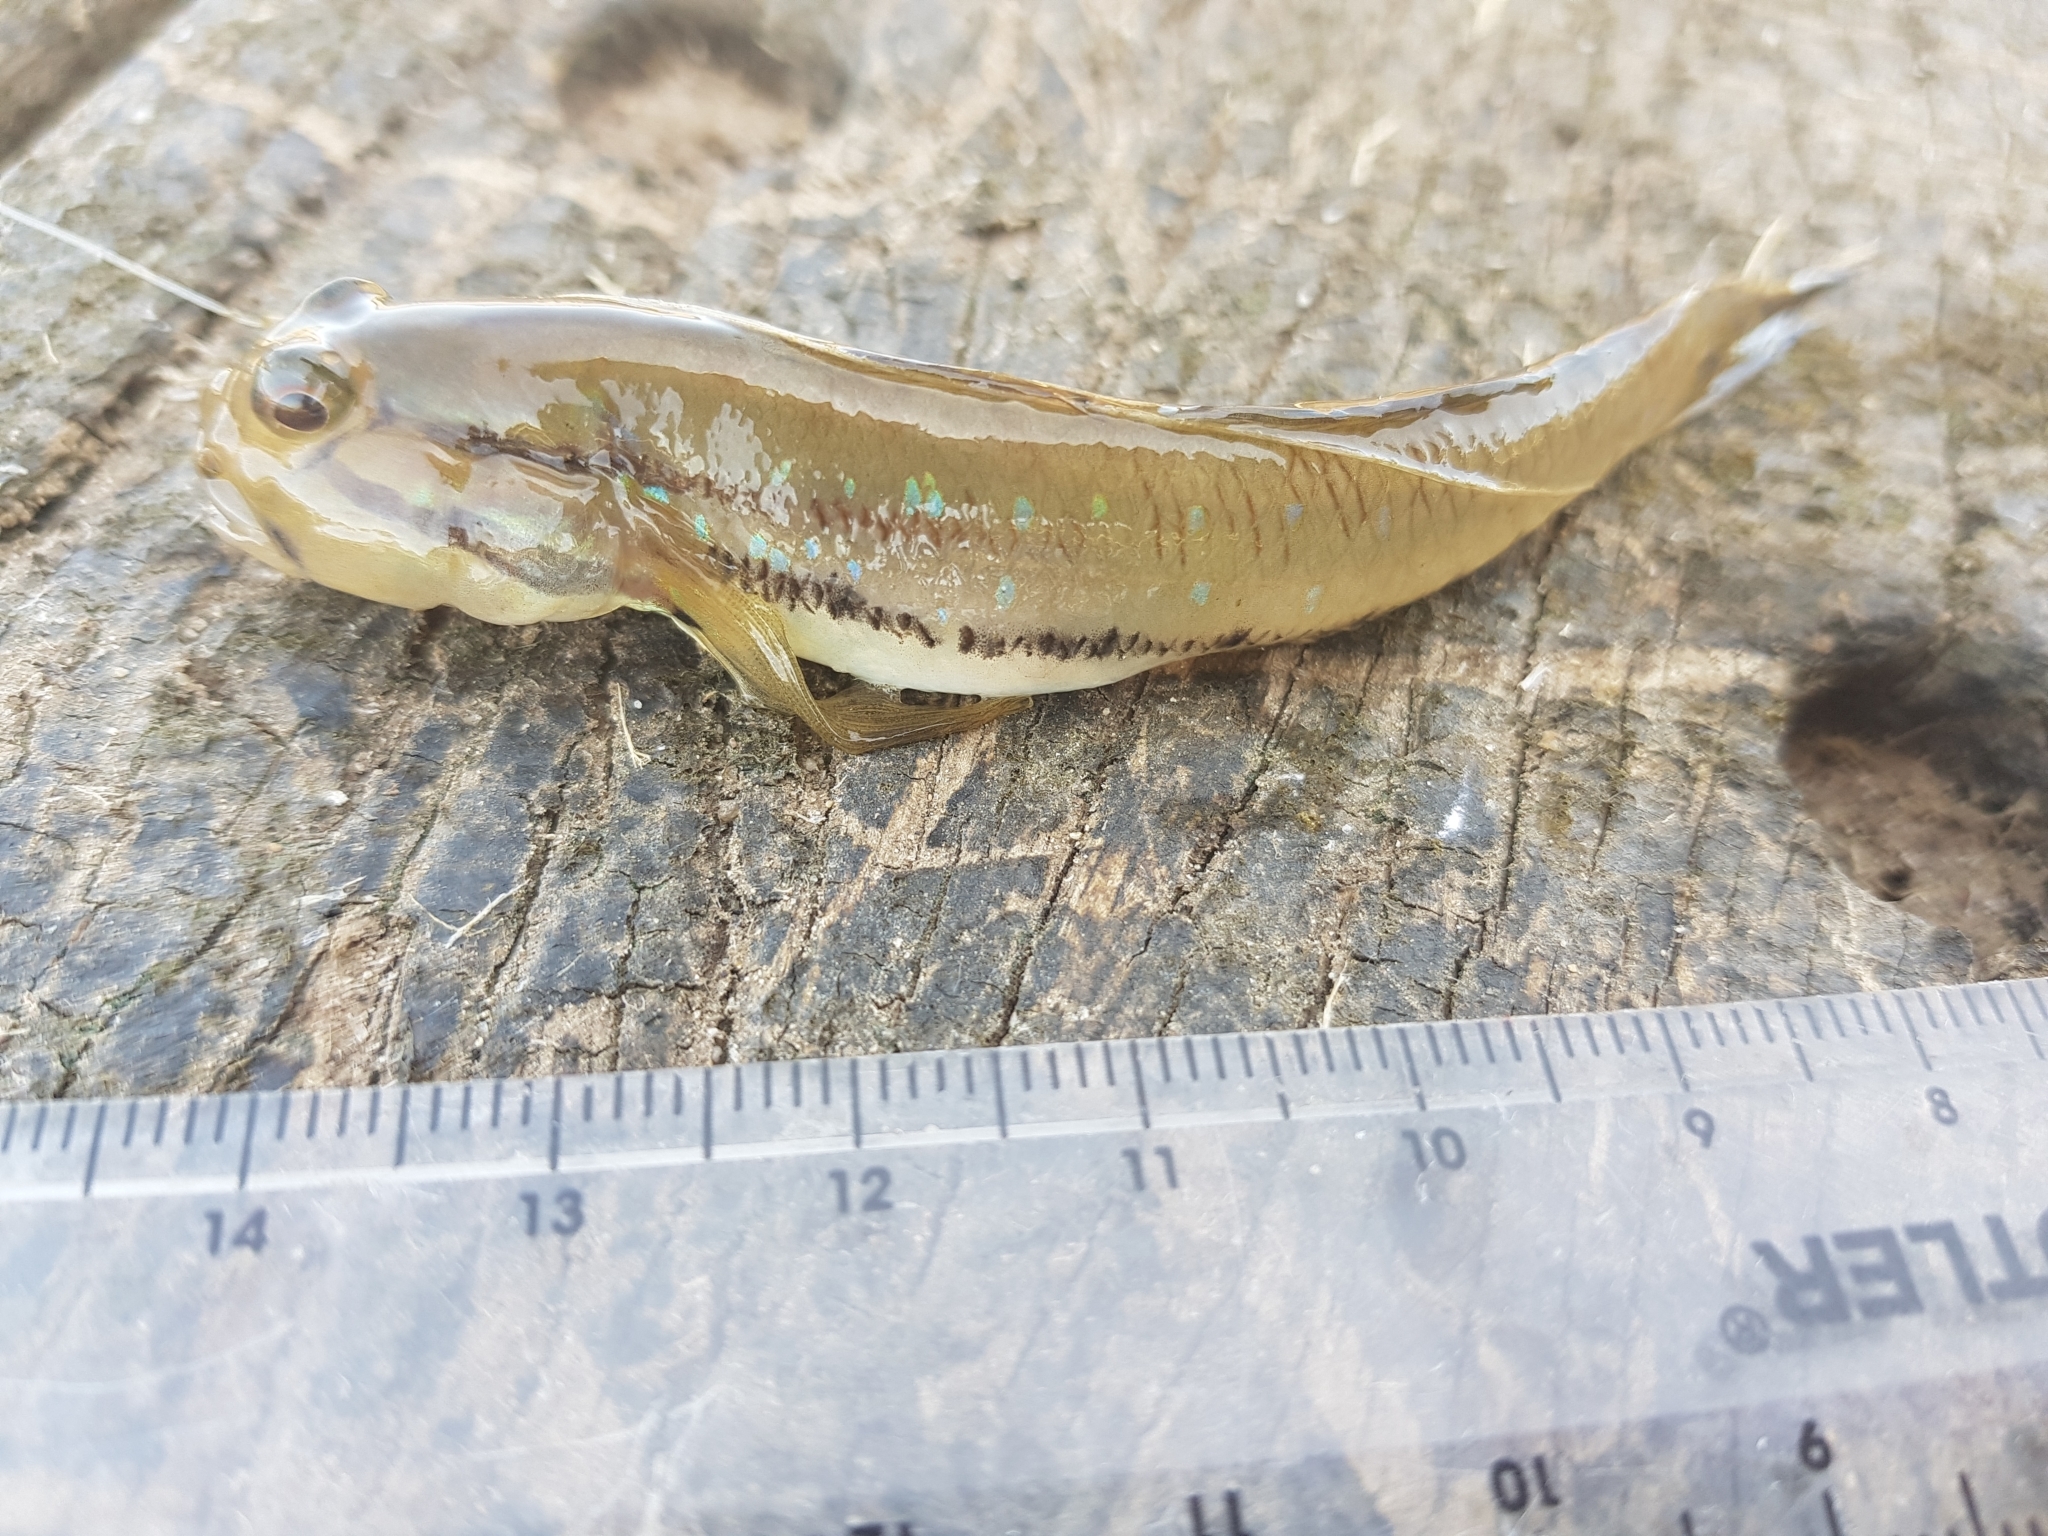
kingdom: Animalia
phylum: Chordata
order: Perciformes
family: Gobiidae
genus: Arenigobius
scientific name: Arenigobius bifrenatus
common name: Bridled goby
